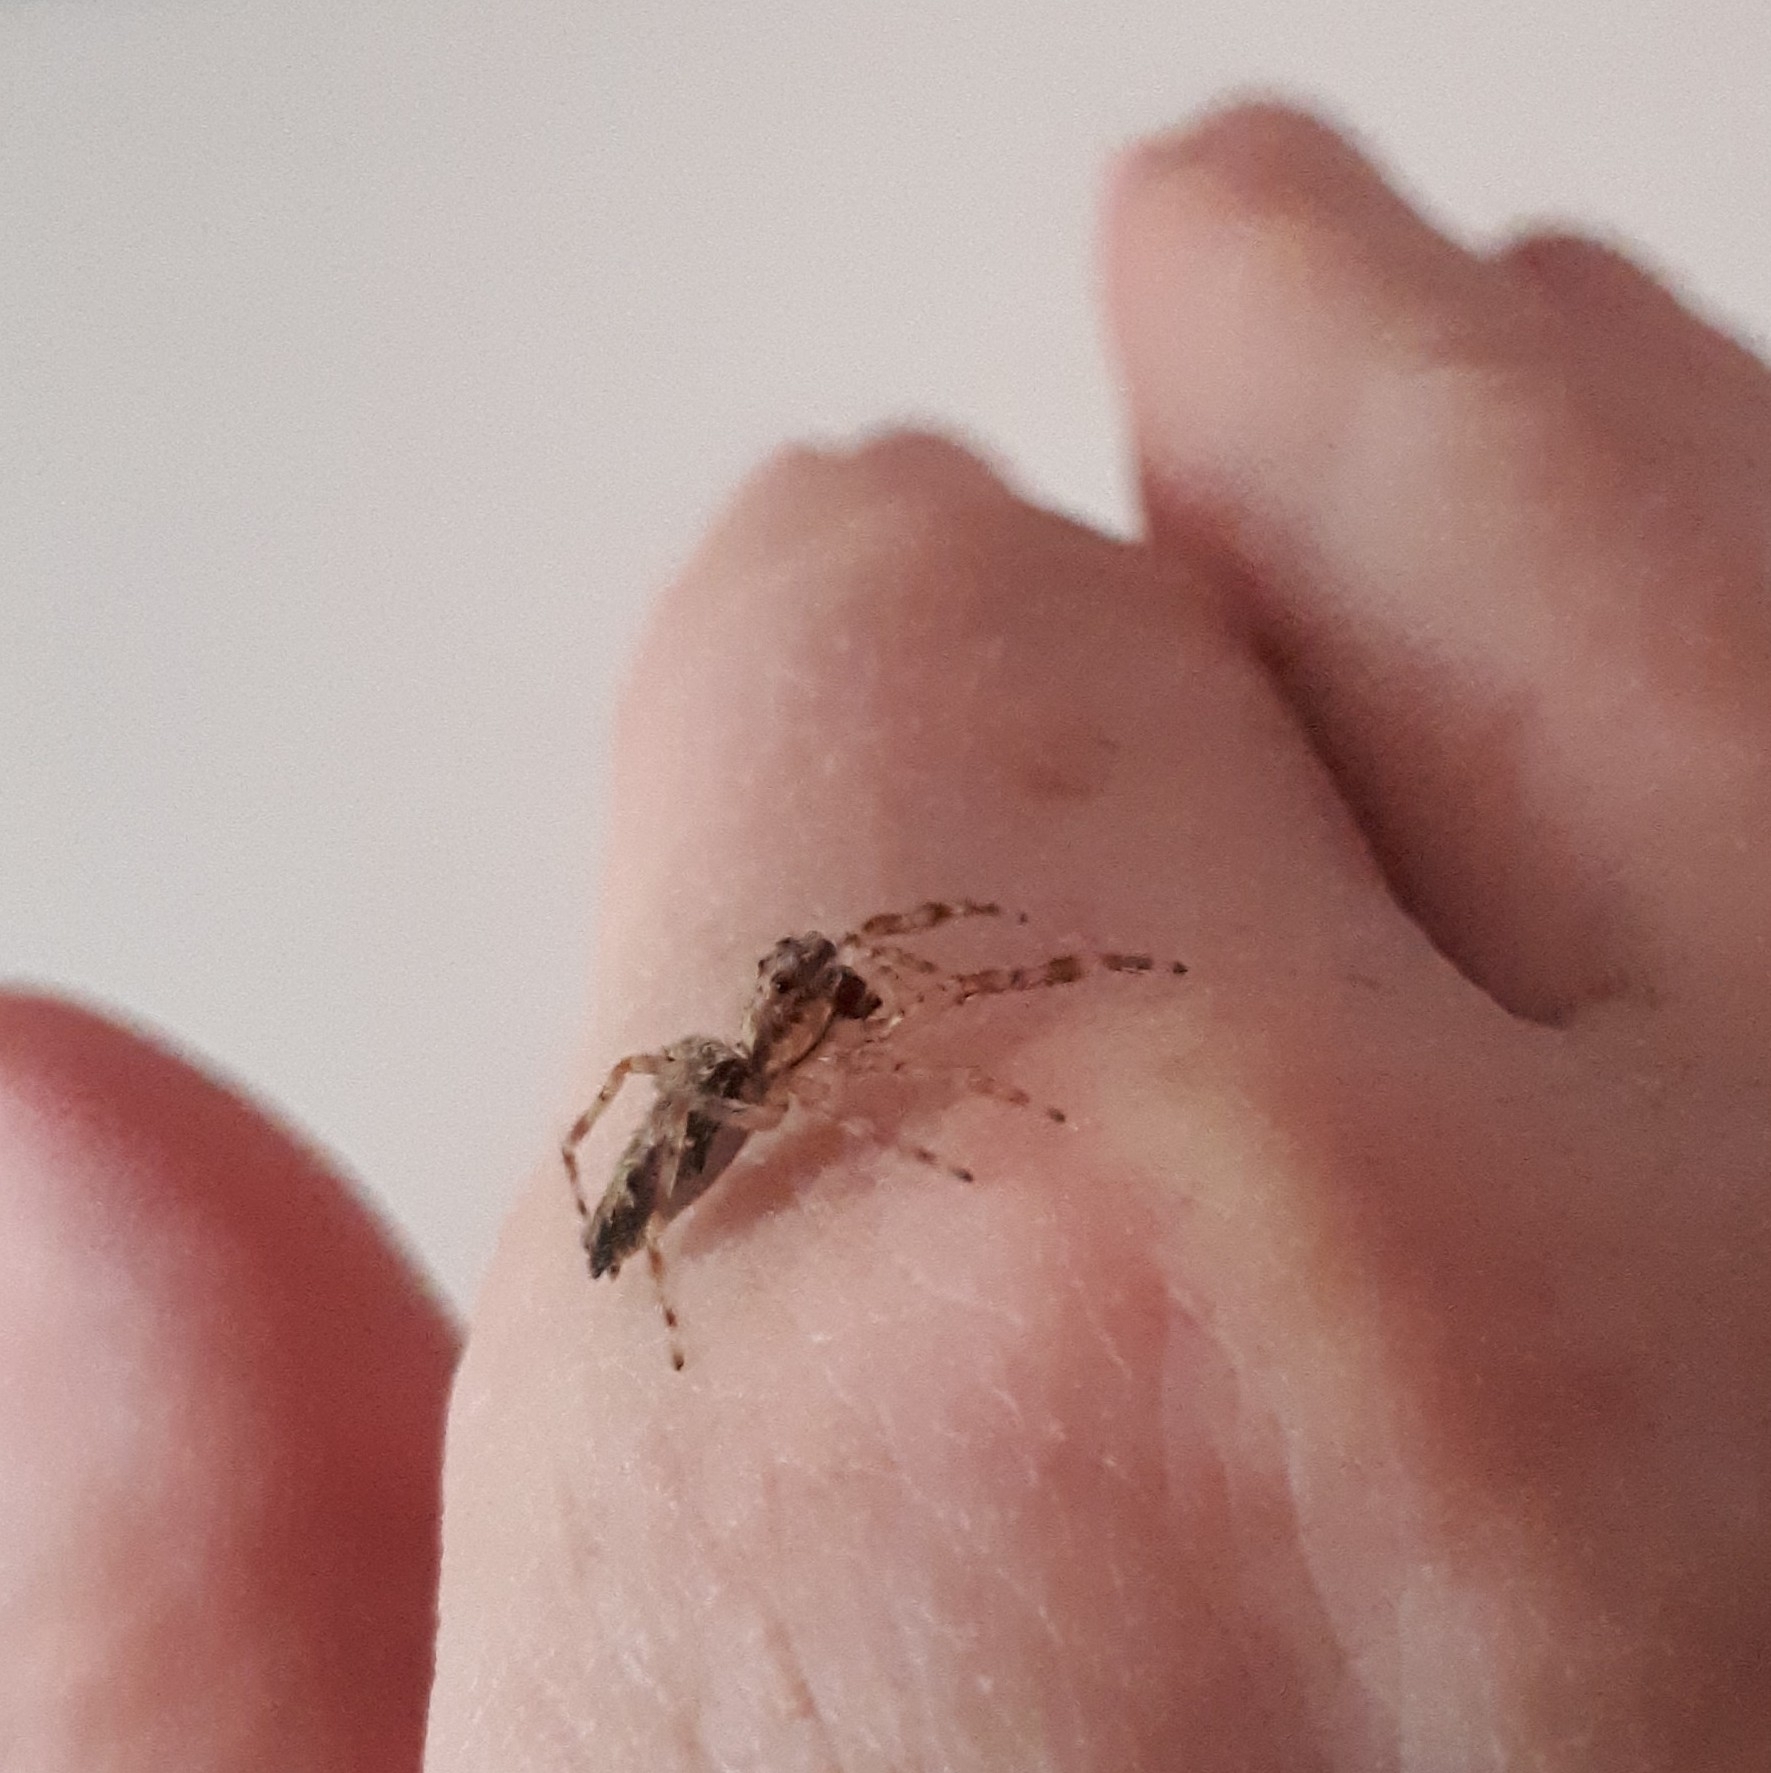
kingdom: Animalia
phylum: Arthropoda
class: Arachnida
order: Araneae
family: Salticidae
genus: Helpis
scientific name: Helpis minitabunda
